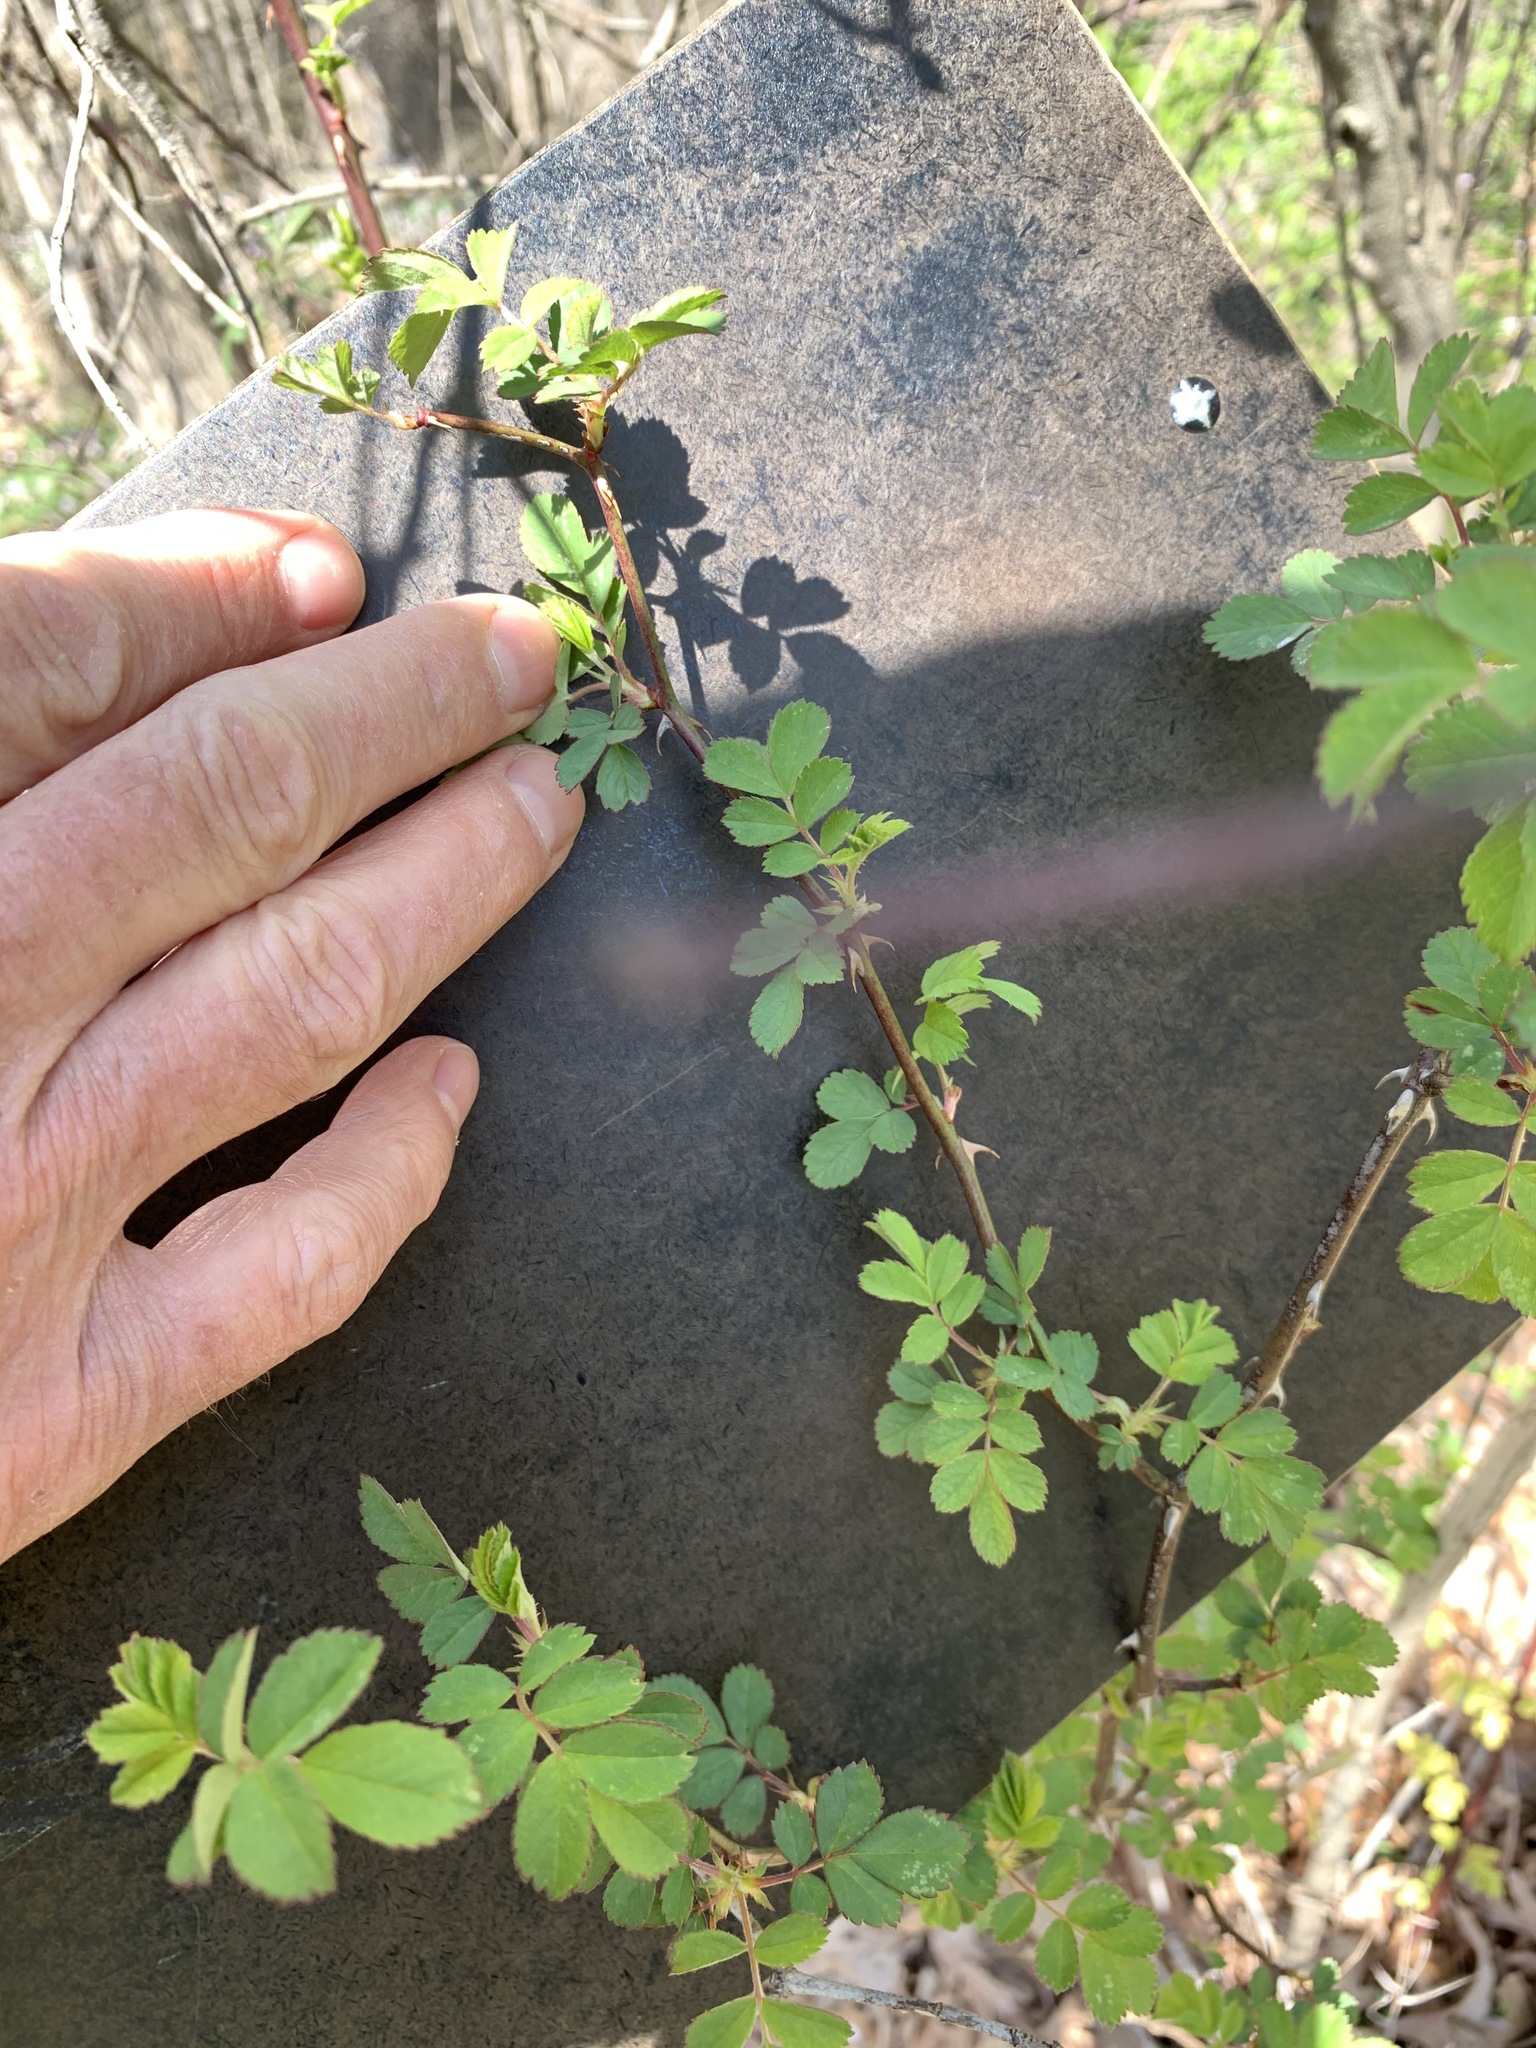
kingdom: Plantae
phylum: Tracheophyta
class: Magnoliopsida
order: Rosales
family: Rosaceae
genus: Rosa
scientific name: Rosa multiflora
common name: Multiflora rose
